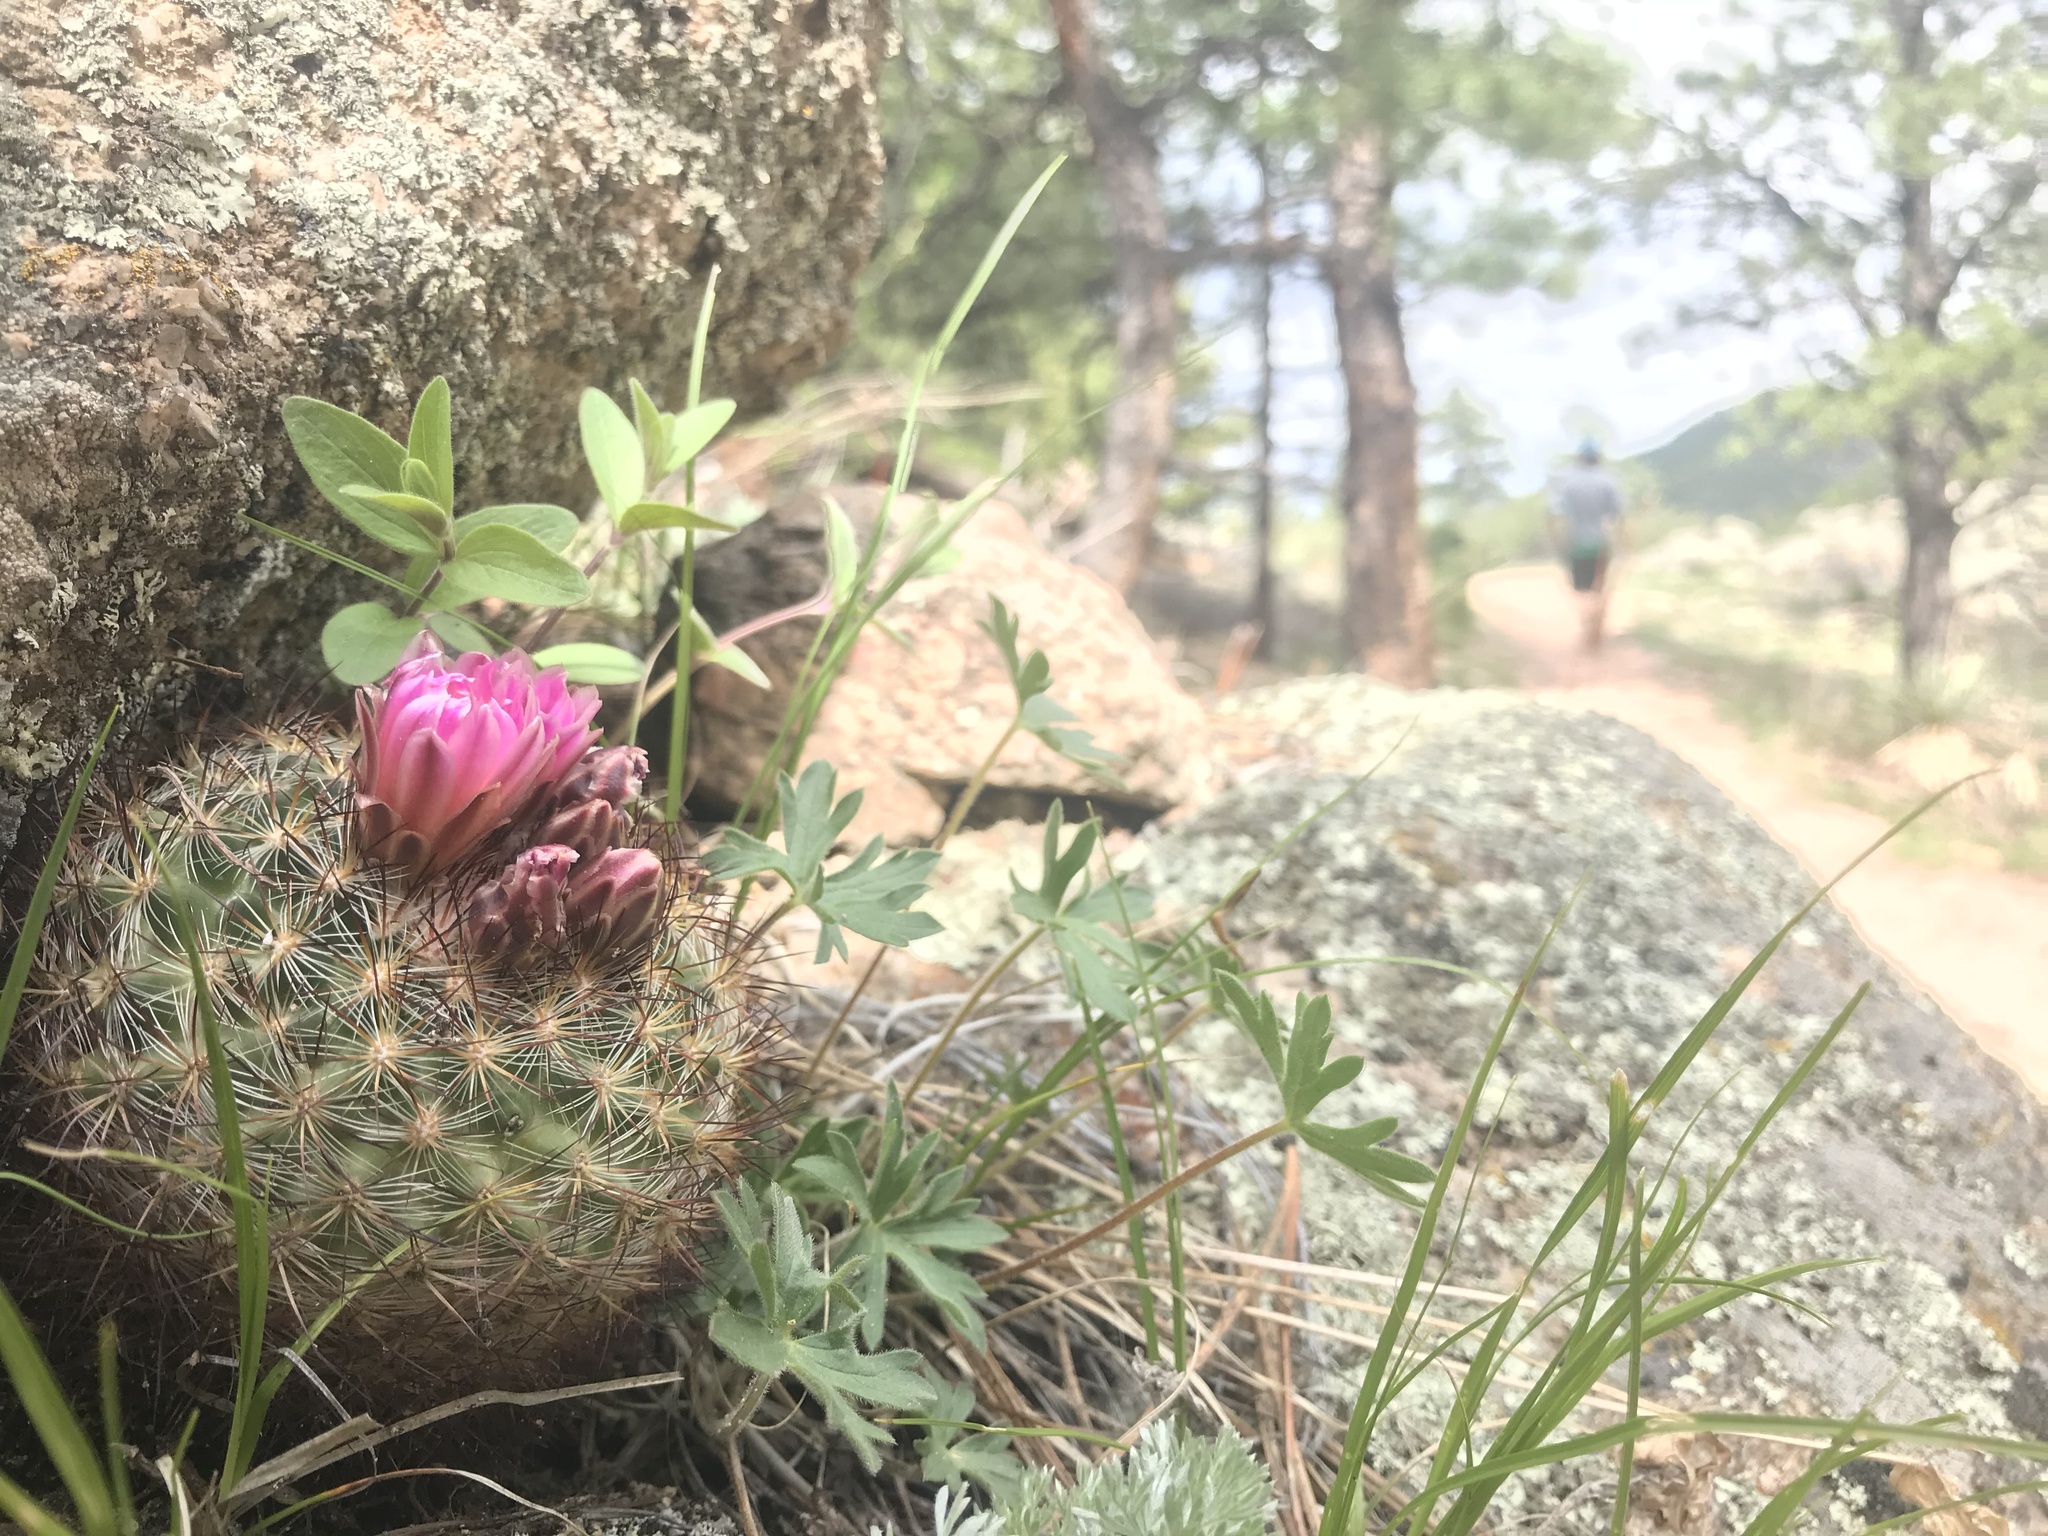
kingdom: Plantae
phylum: Tracheophyta
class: Magnoliopsida
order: Caryophyllales
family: Cactaceae
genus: Pediocactus
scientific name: Pediocactus simpsonii
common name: Simpson's hedgehog cactus
